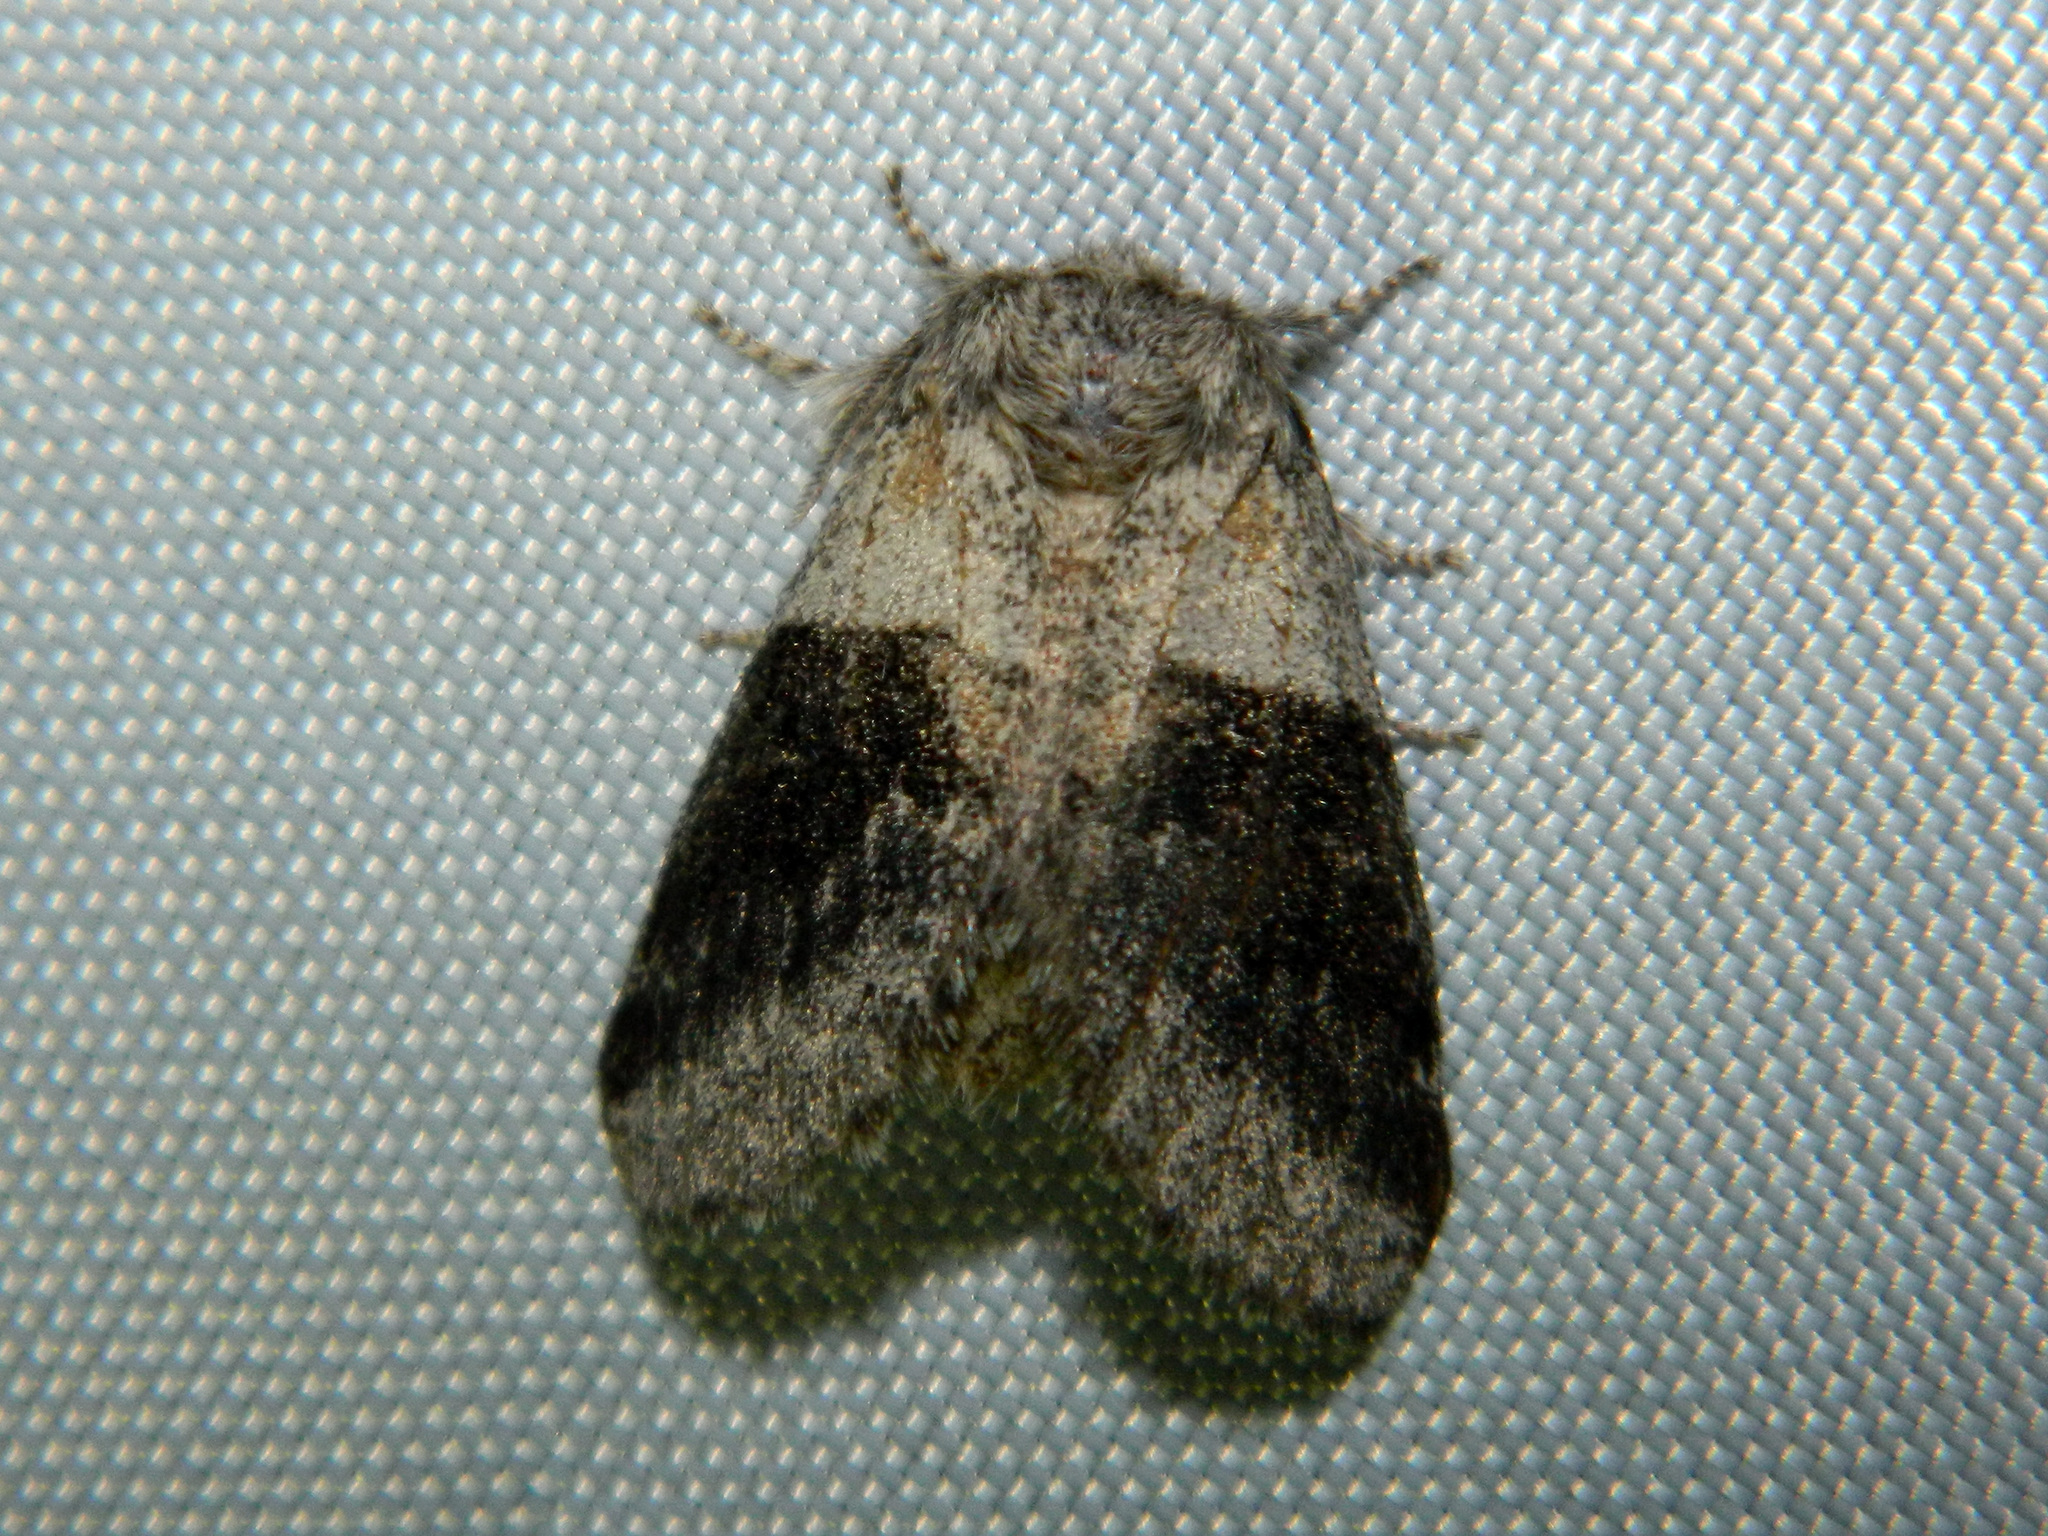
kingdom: Animalia
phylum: Arthropoda
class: Insecta
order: Lepidoptera
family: Notodontidae
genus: Gluphisia
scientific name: Gluphisia septentrionis
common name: Common gluphisia
